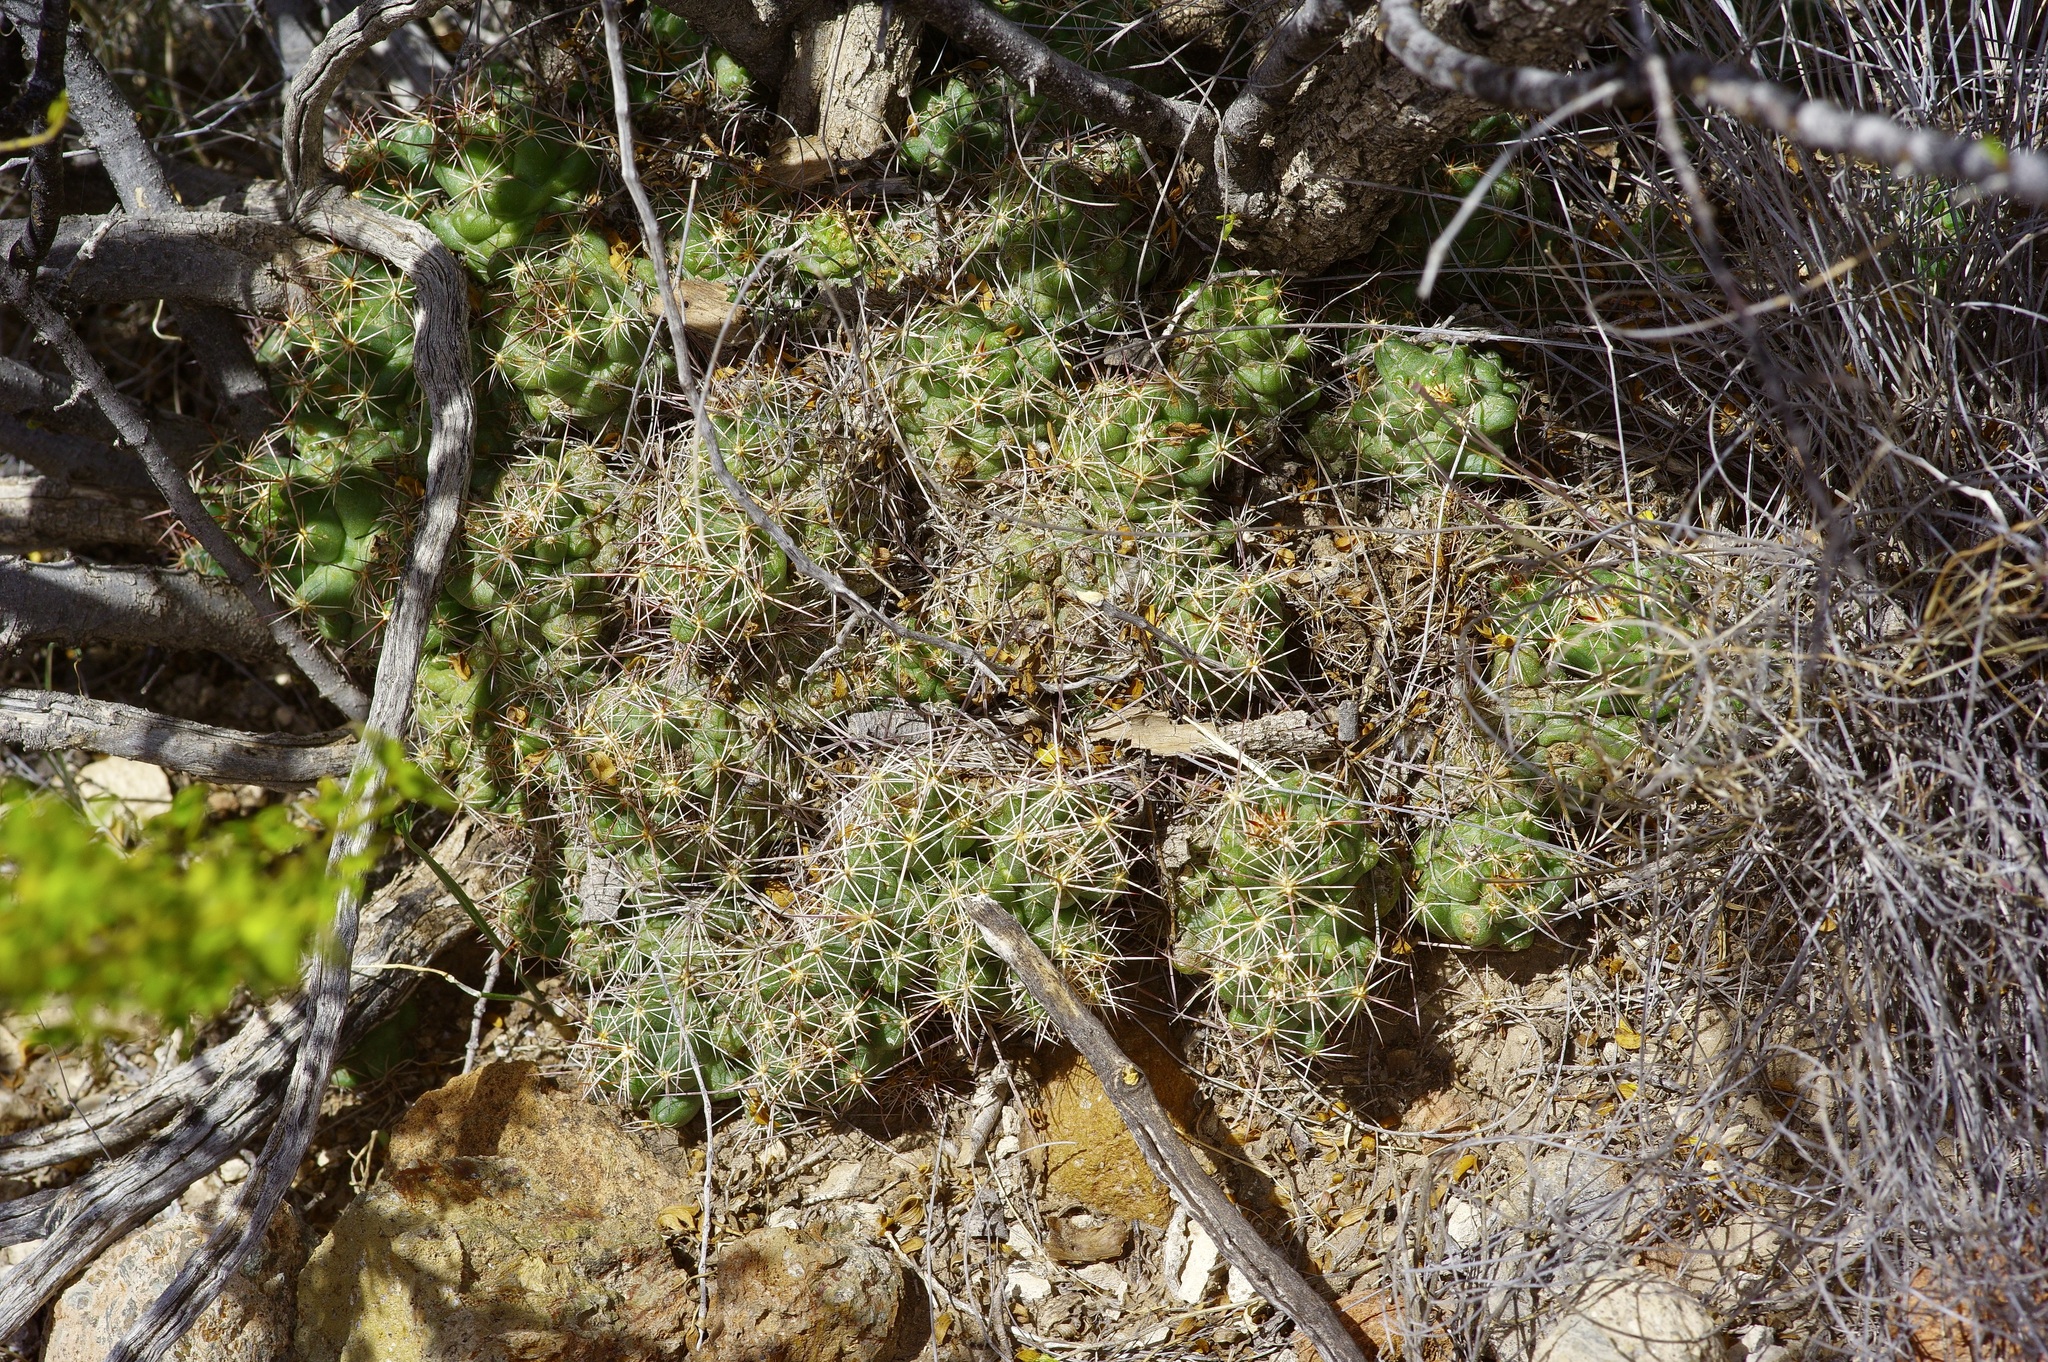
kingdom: Plantae
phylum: Tracheophyta
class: Magnoliopsida
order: Caryophyllales
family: Cactaceae
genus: Coryphantha
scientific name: Coryphantha macromeris
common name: Nipple beehive cactus
